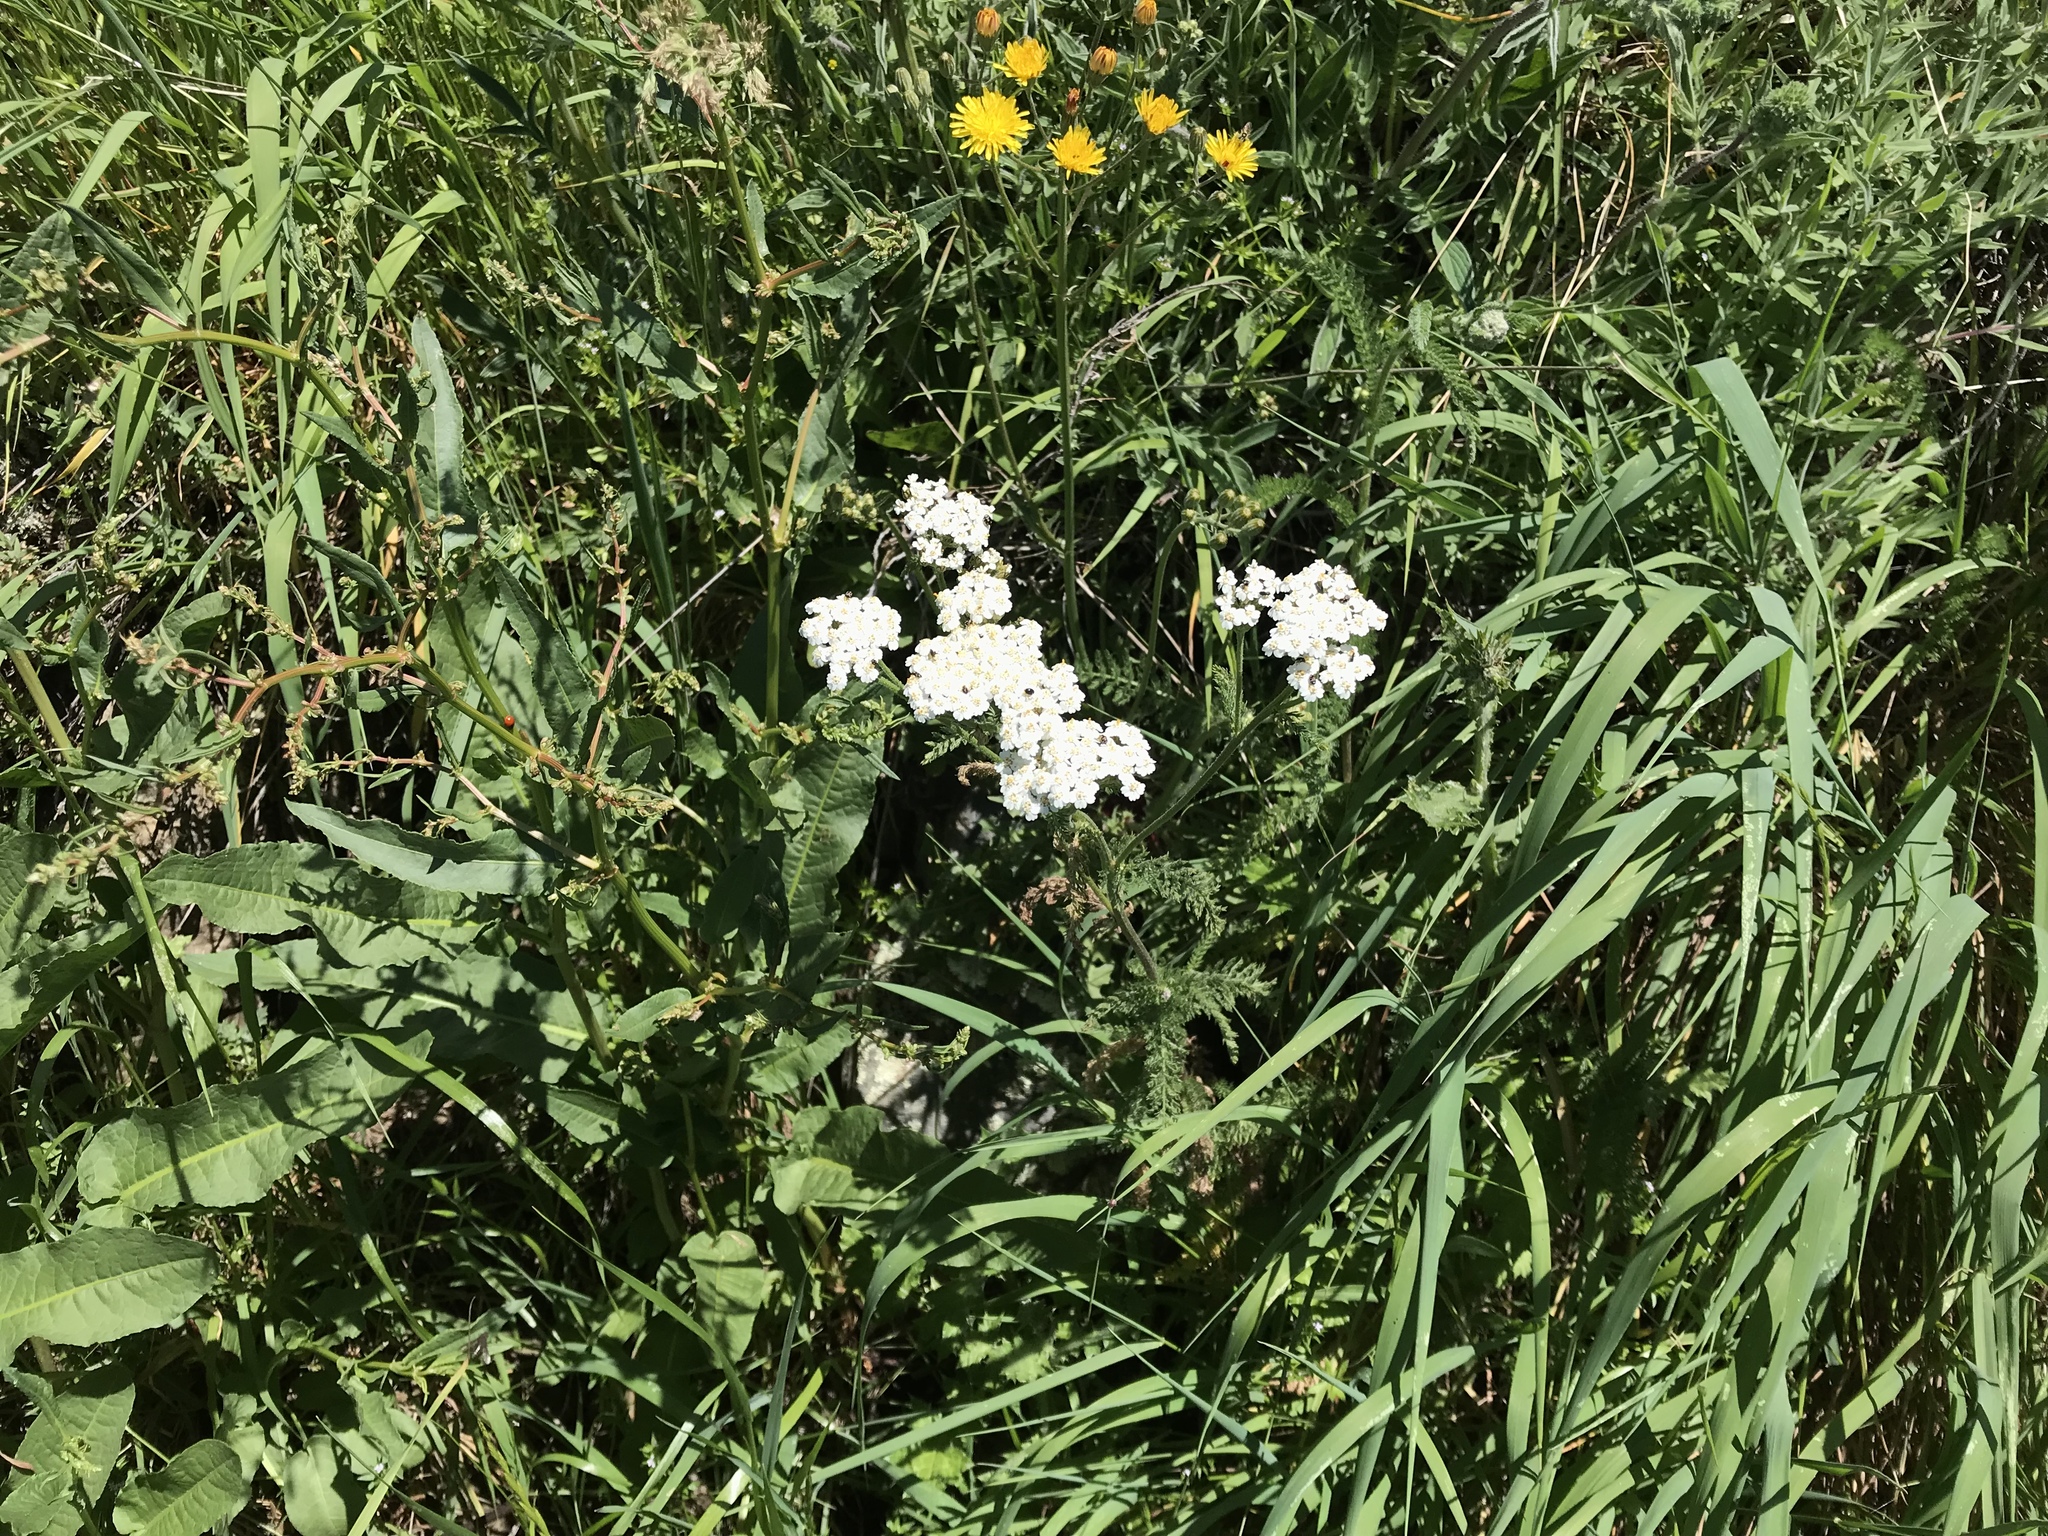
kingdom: Plantae
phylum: Tracheophyta
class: Magnoliopsida
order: Asterales
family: Asteraceae
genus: Achillea
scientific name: Achillea millefolium
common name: Yarrow
